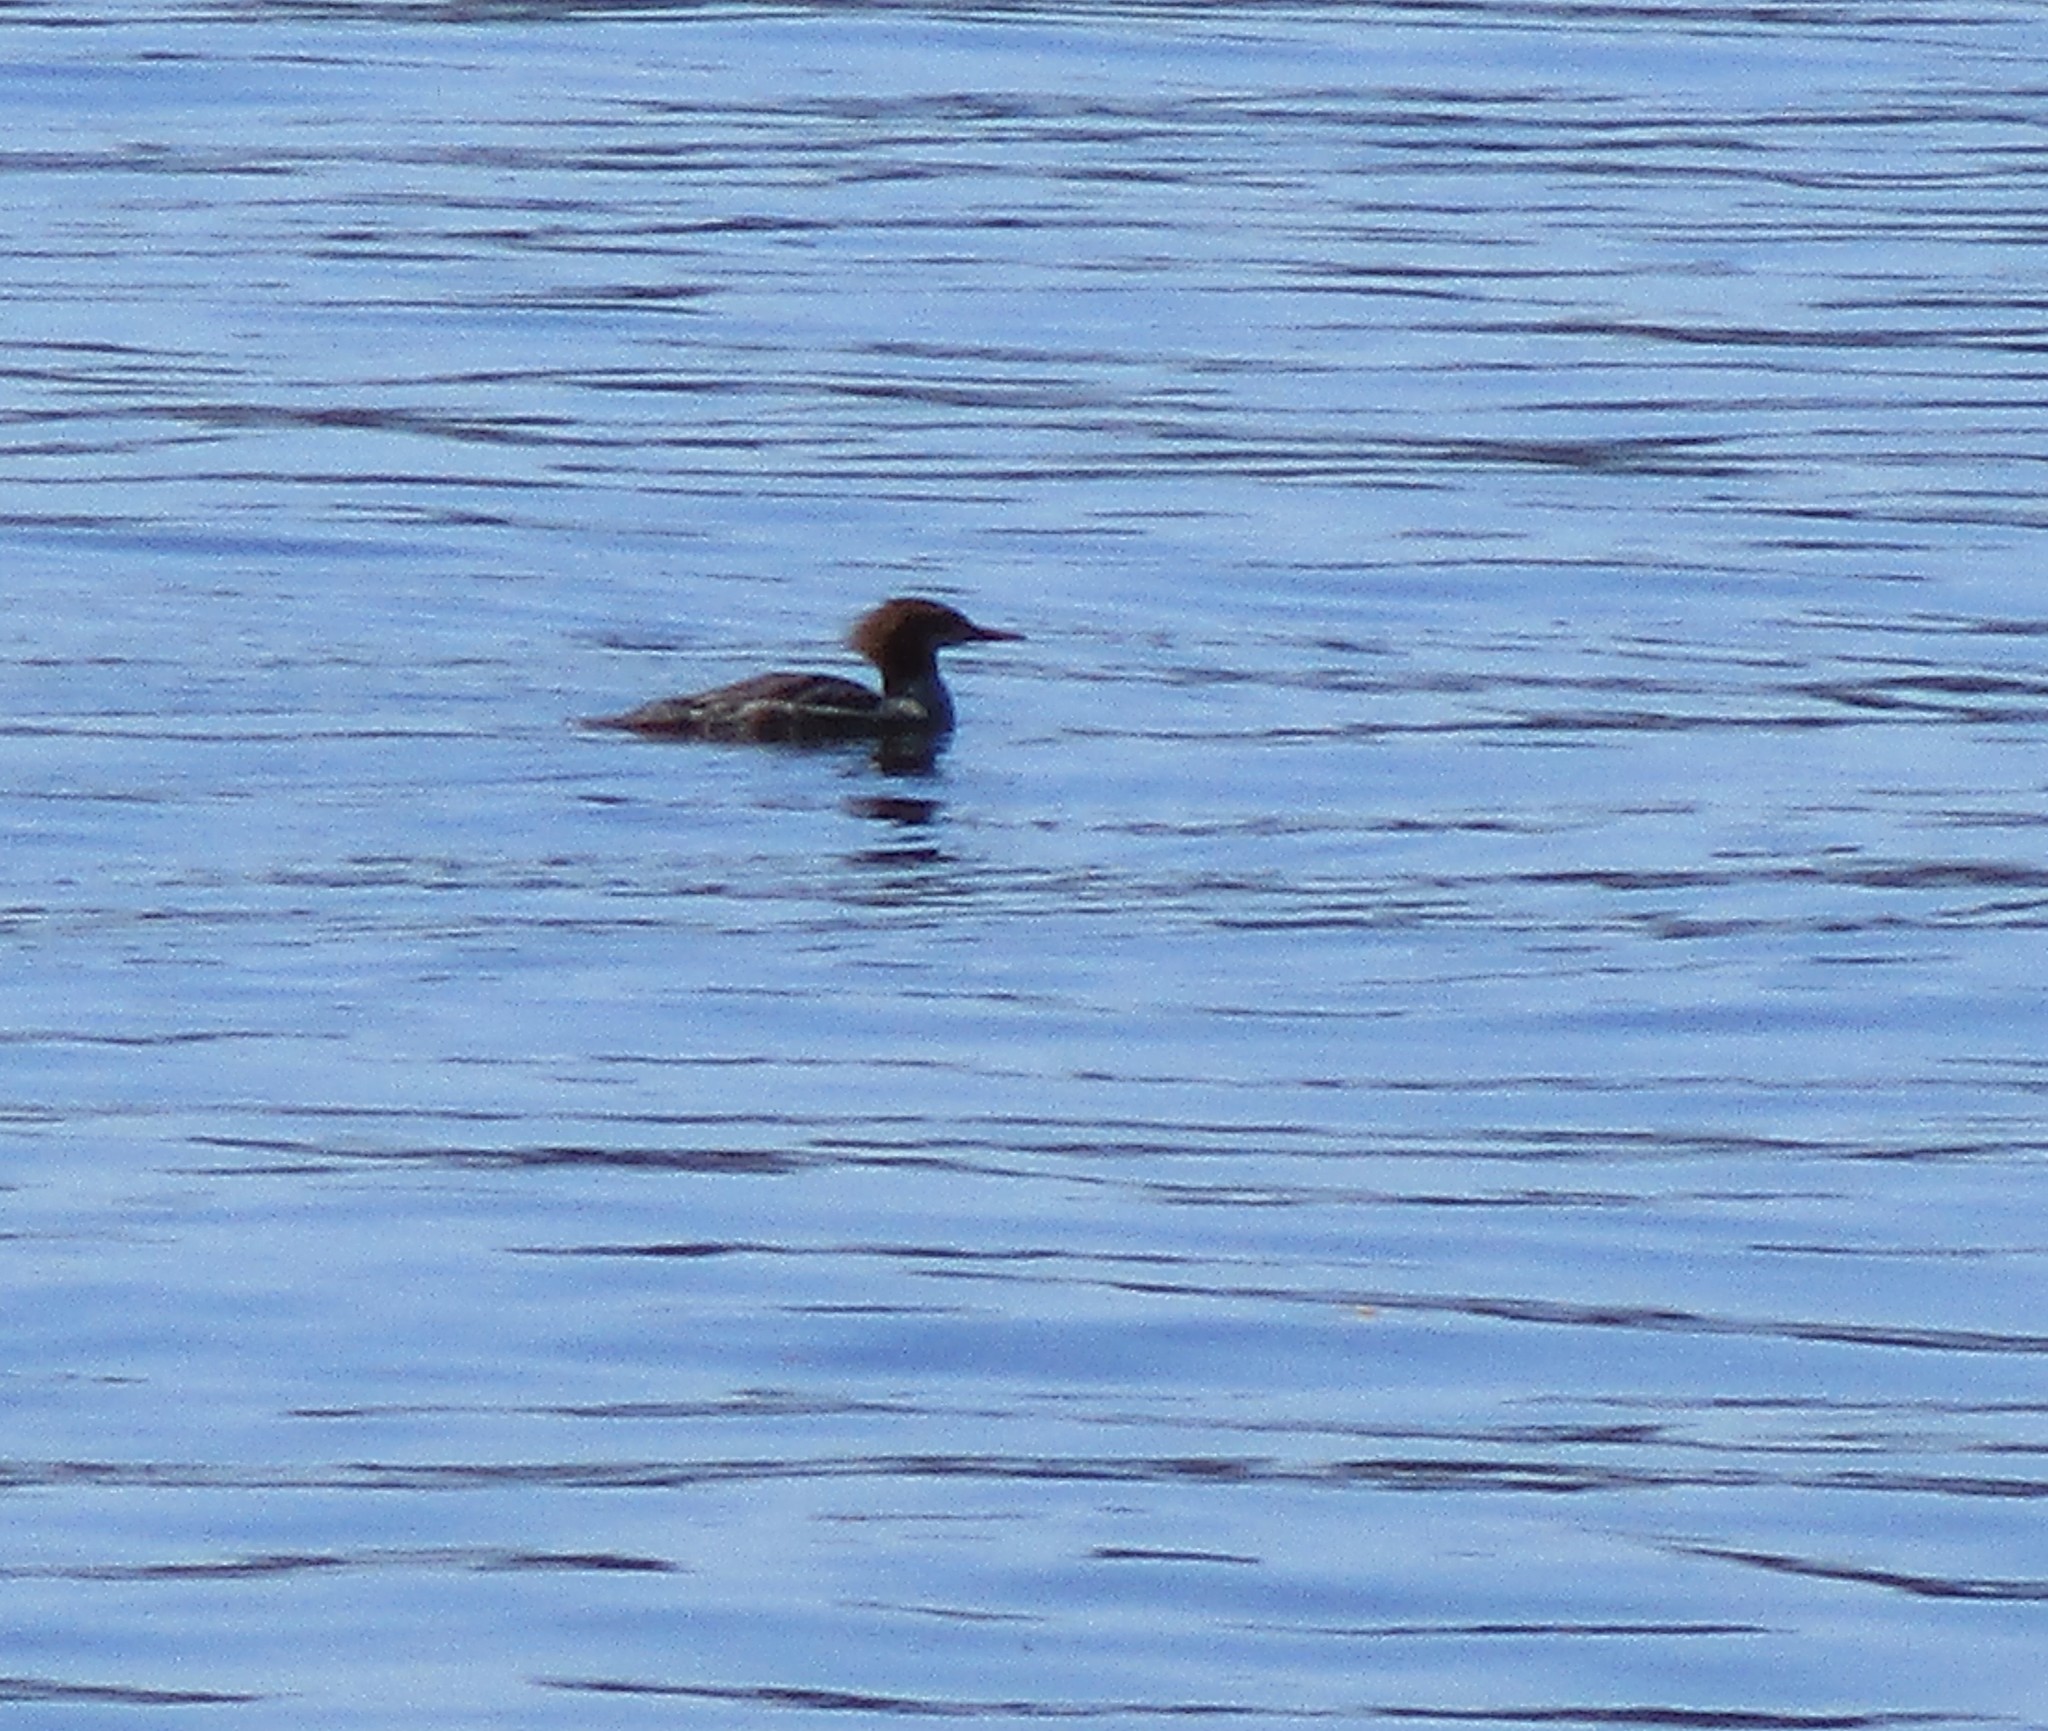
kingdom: Animalia
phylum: Chordata
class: Aves
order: Anseriformes
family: Anatidae
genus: Mergus
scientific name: Mergus merganser
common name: Common merganser
